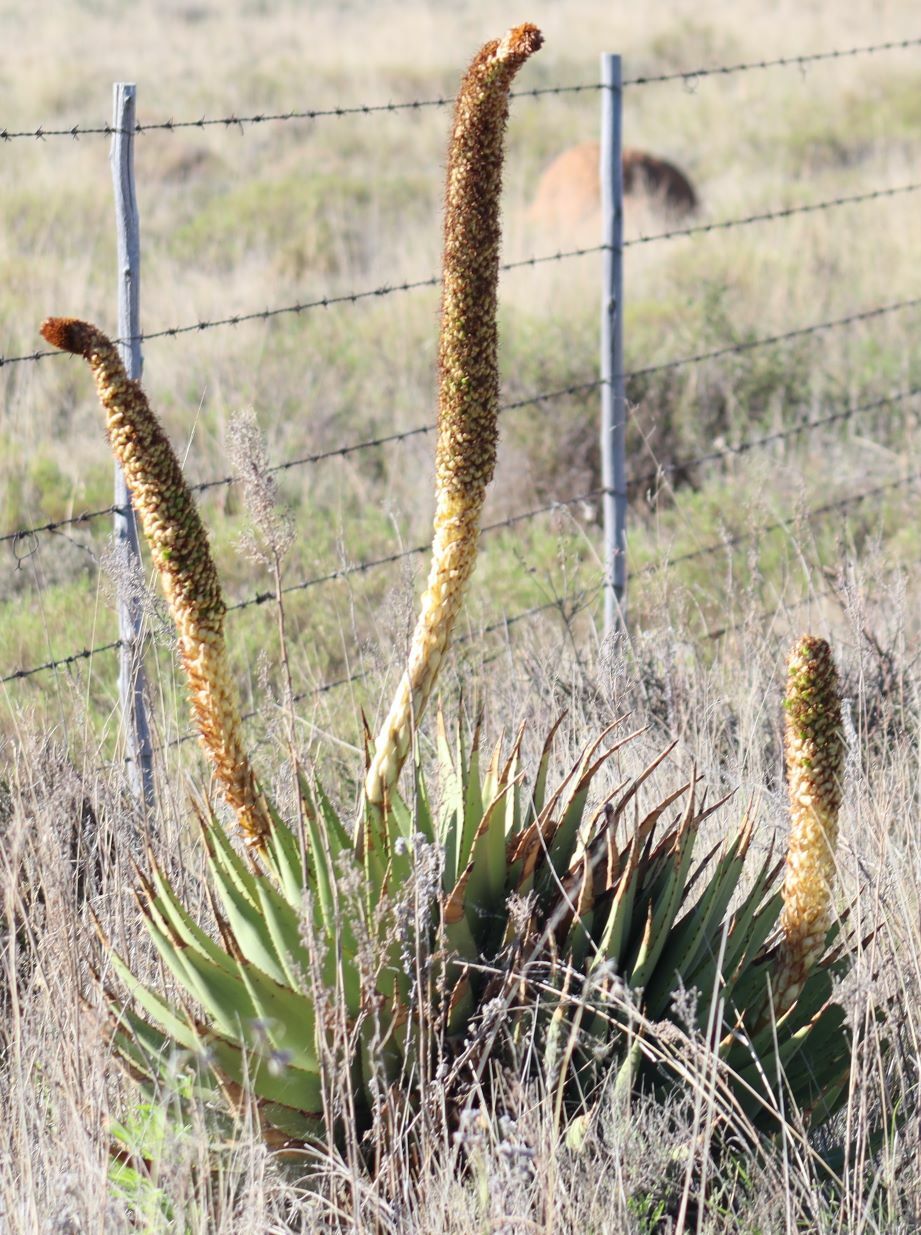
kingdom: Plantae
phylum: Tracheophyta
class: Liliopsida
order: Asparagales
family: Asphodelaceae
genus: Aloe
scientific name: Aloe broomii
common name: Berg alwyn
